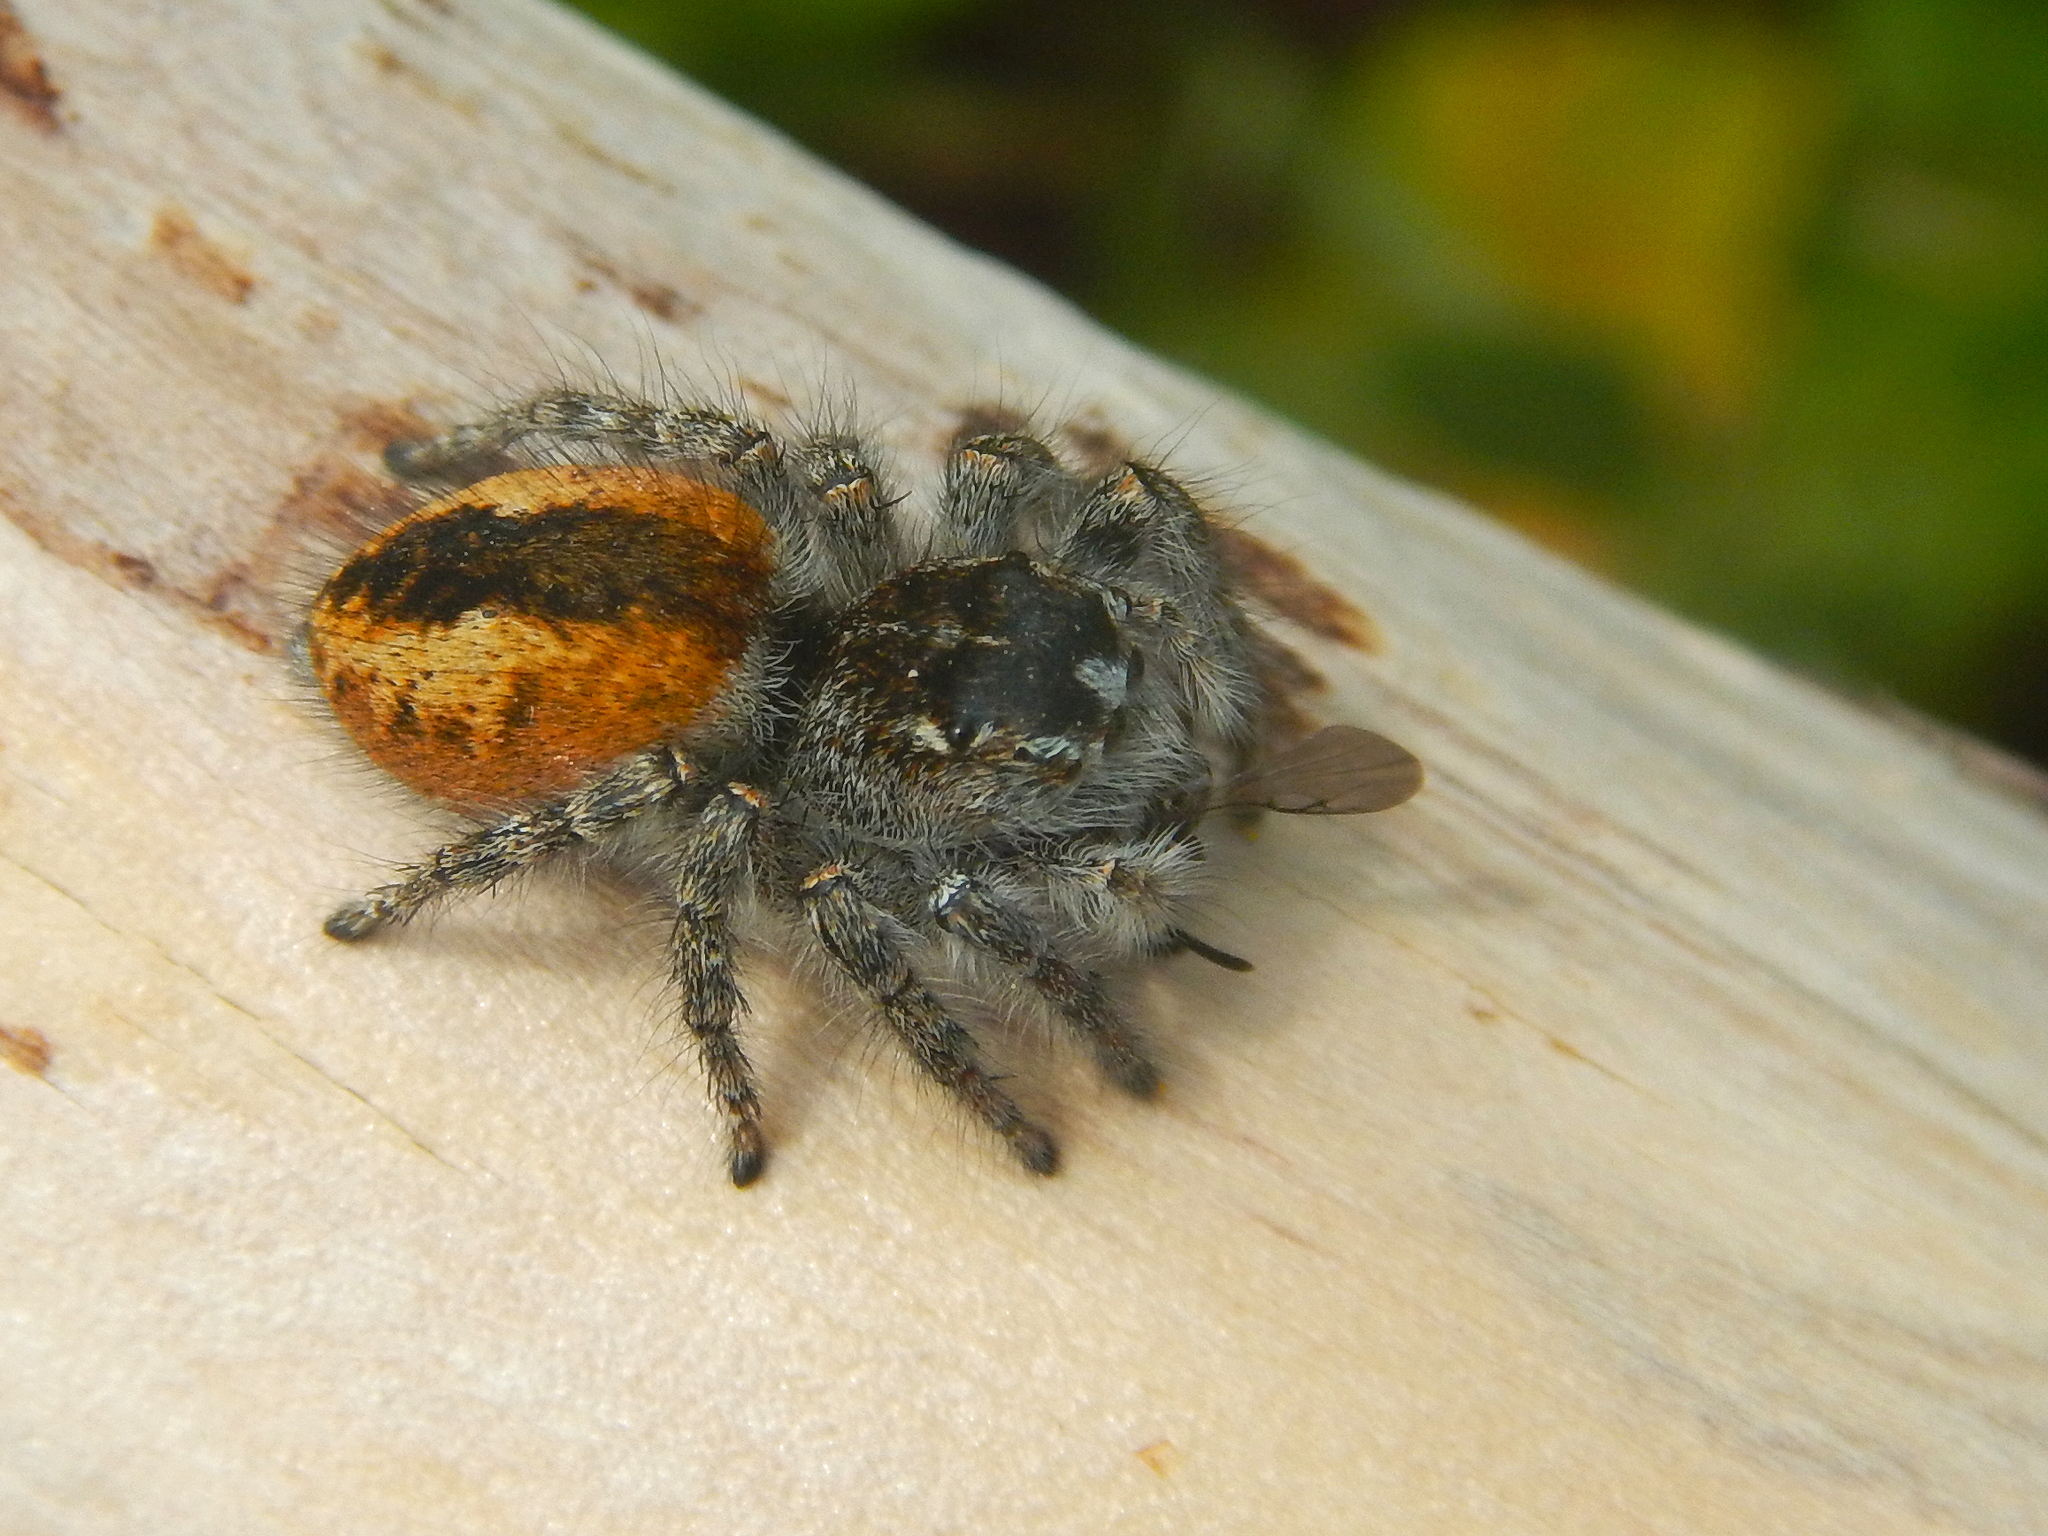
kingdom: Animalia
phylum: Arthropoda
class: Arachnida
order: Araneae
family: Salticidae
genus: Philaeus
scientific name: Philaeus chrysops
